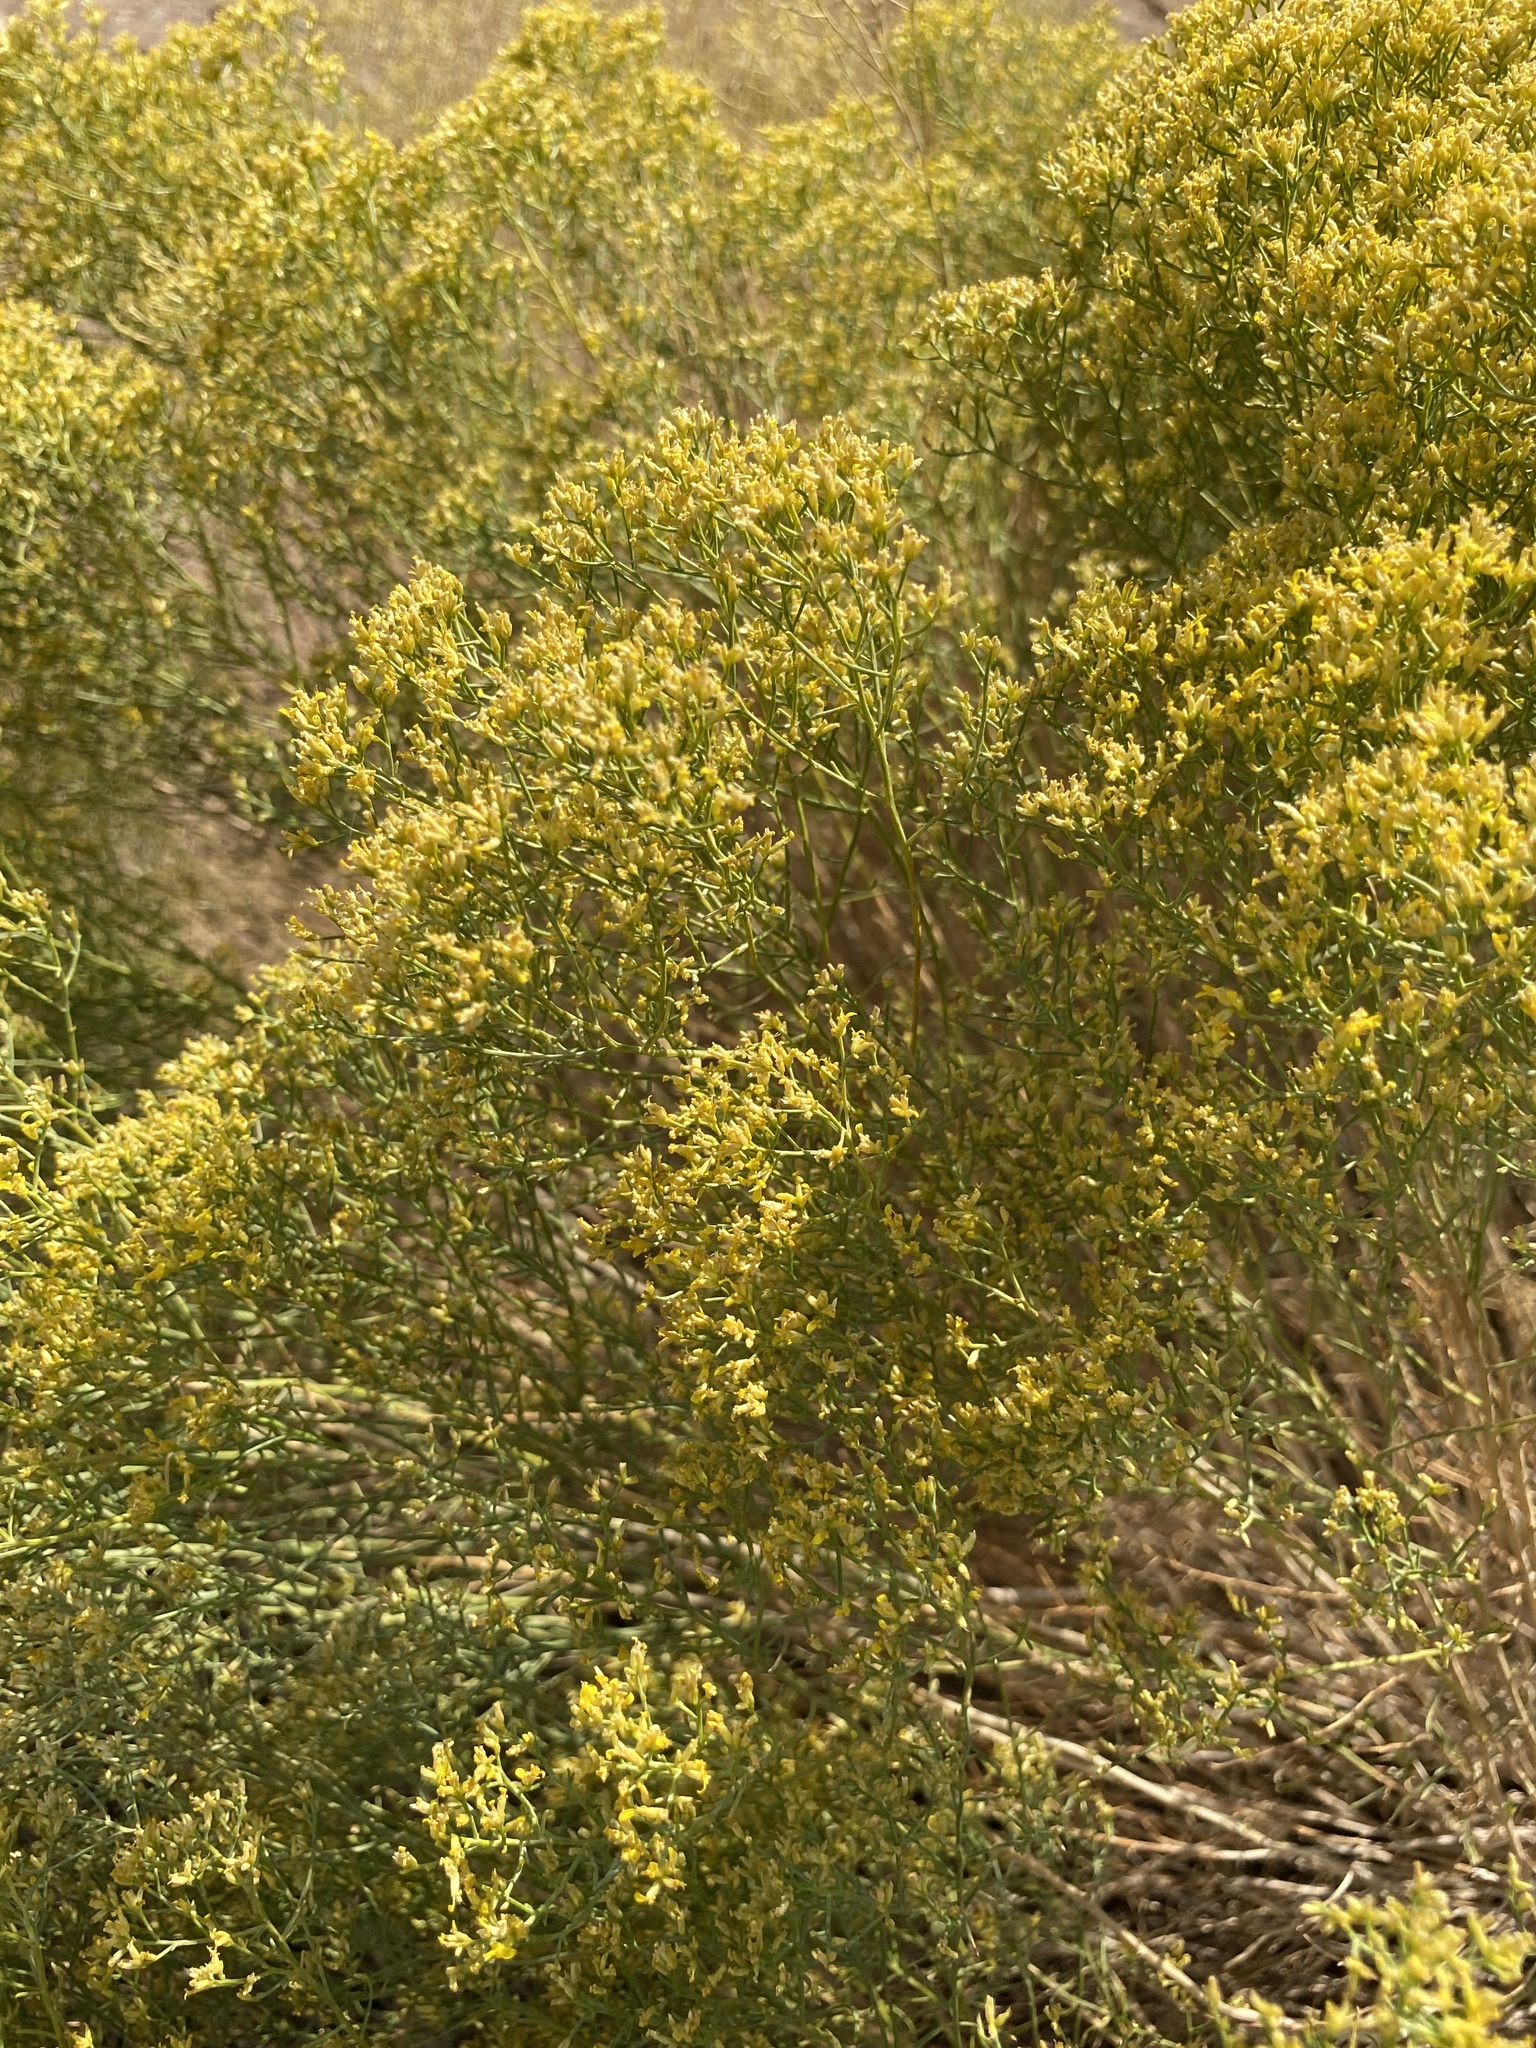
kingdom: Plantae
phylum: Tracheophyta
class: Magnoliopsida
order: Asterales
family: Asteraceae
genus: Gutierrezia
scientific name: Gutierrezia microcephala
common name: Thread snakeweed
